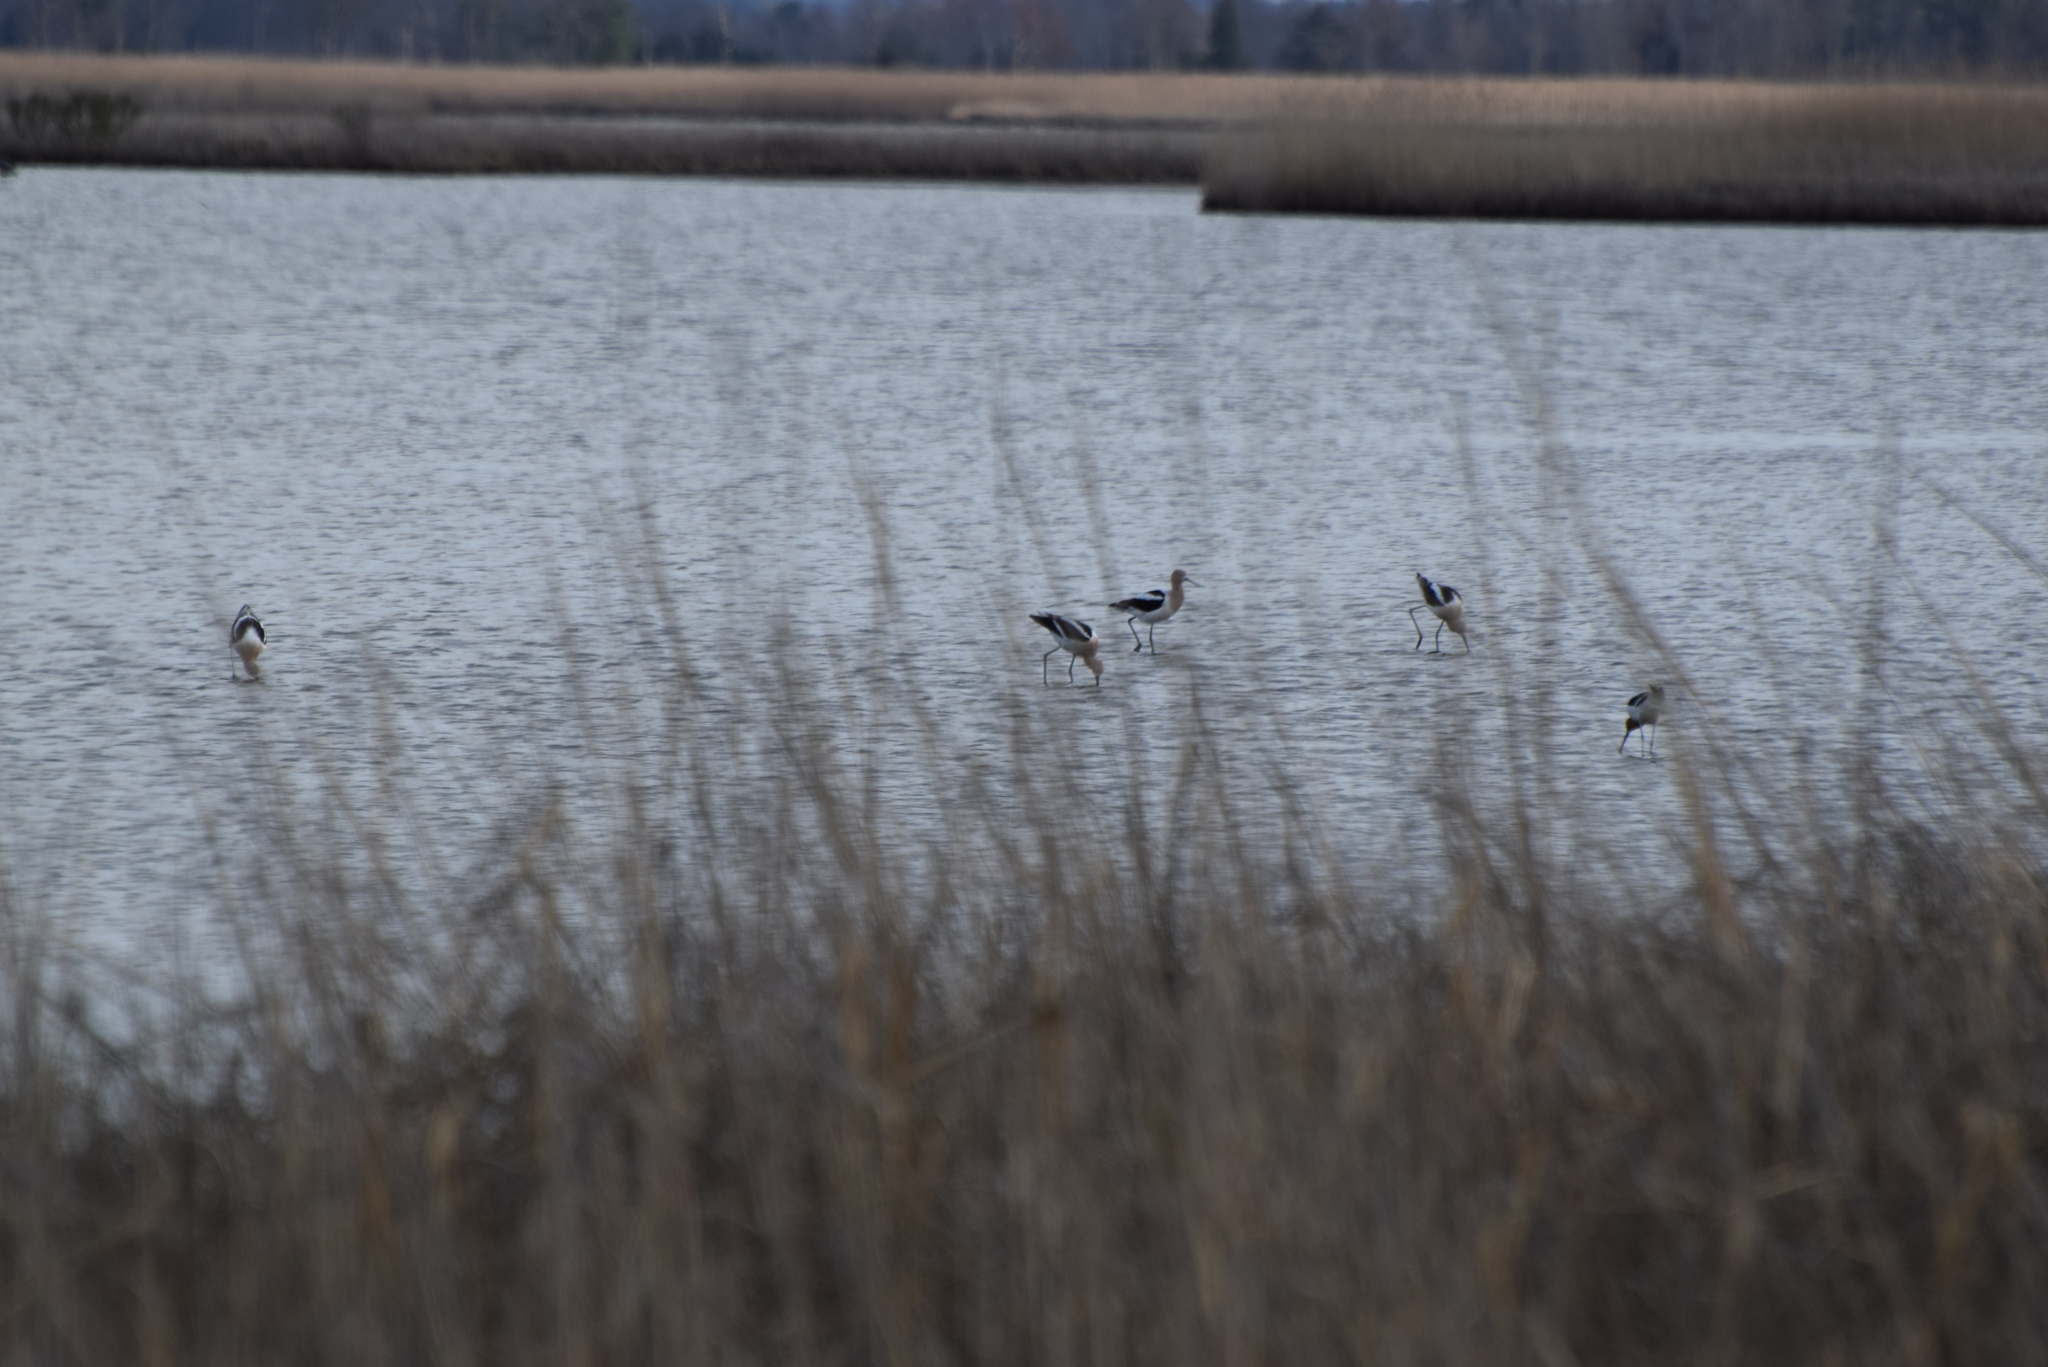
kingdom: Animalia
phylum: Chordata
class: Aves
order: Charadriiformes
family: Recurvirostridae
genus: Recurvirostra
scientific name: Recurvirostra americana
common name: American avocet
